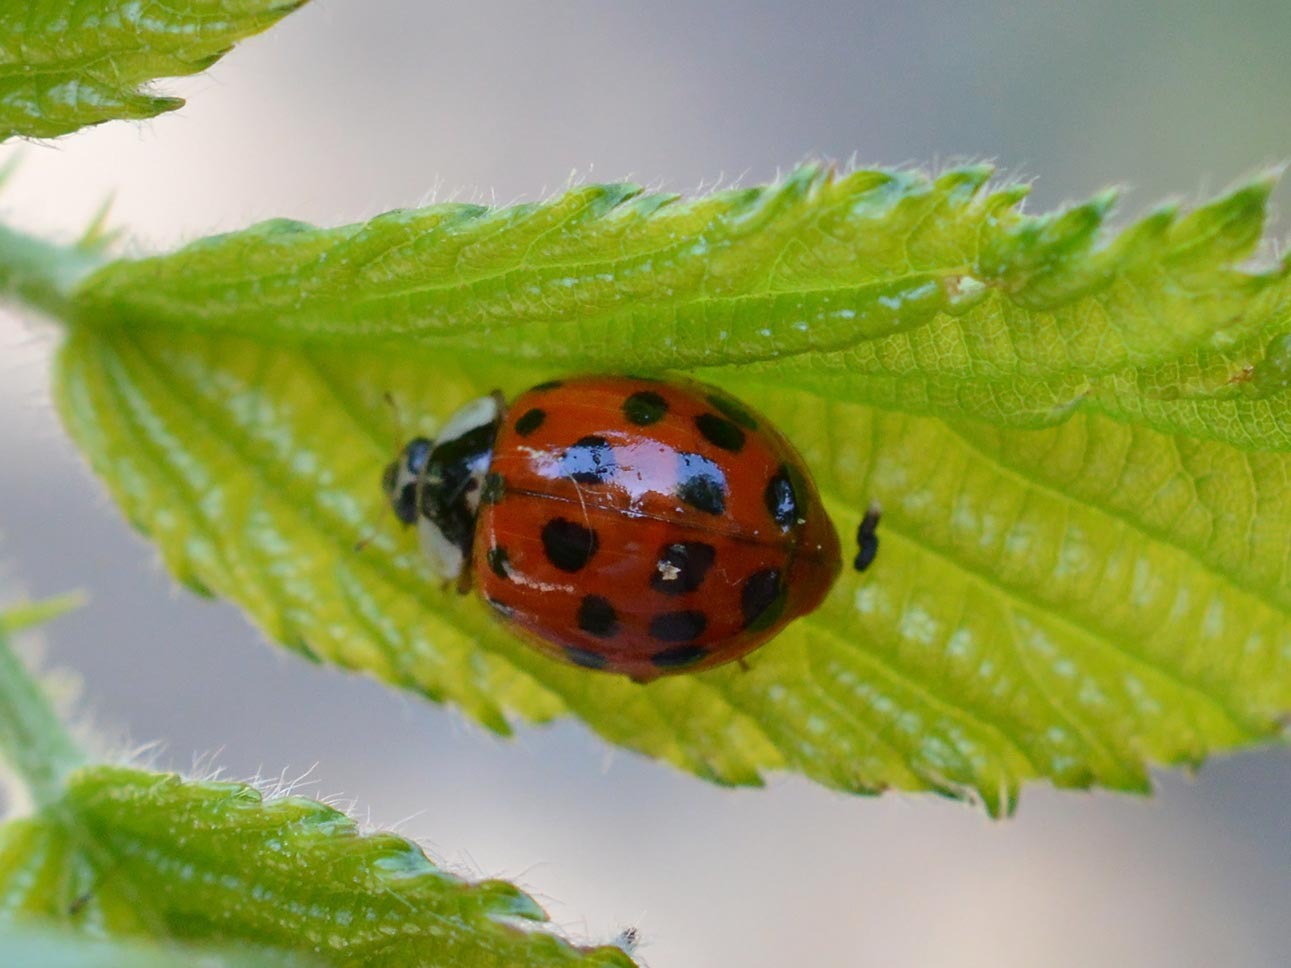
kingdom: Animalia
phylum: Arthropoda
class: Insecta
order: Coleoptera
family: Coccinellidae
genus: Harmonia
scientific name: Harmonia axyridis
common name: Harlequin ladybird
